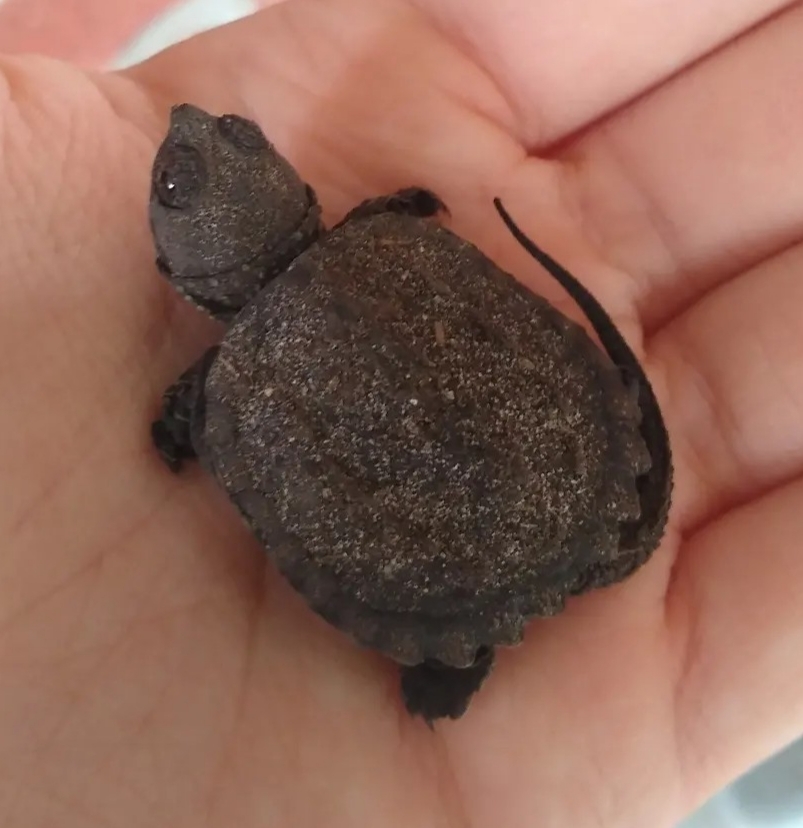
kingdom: Animalia
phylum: Chordata
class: Testudines
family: Chelydridae
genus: Chelydra
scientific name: Chelydra serpentina
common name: Common snapping turtle
